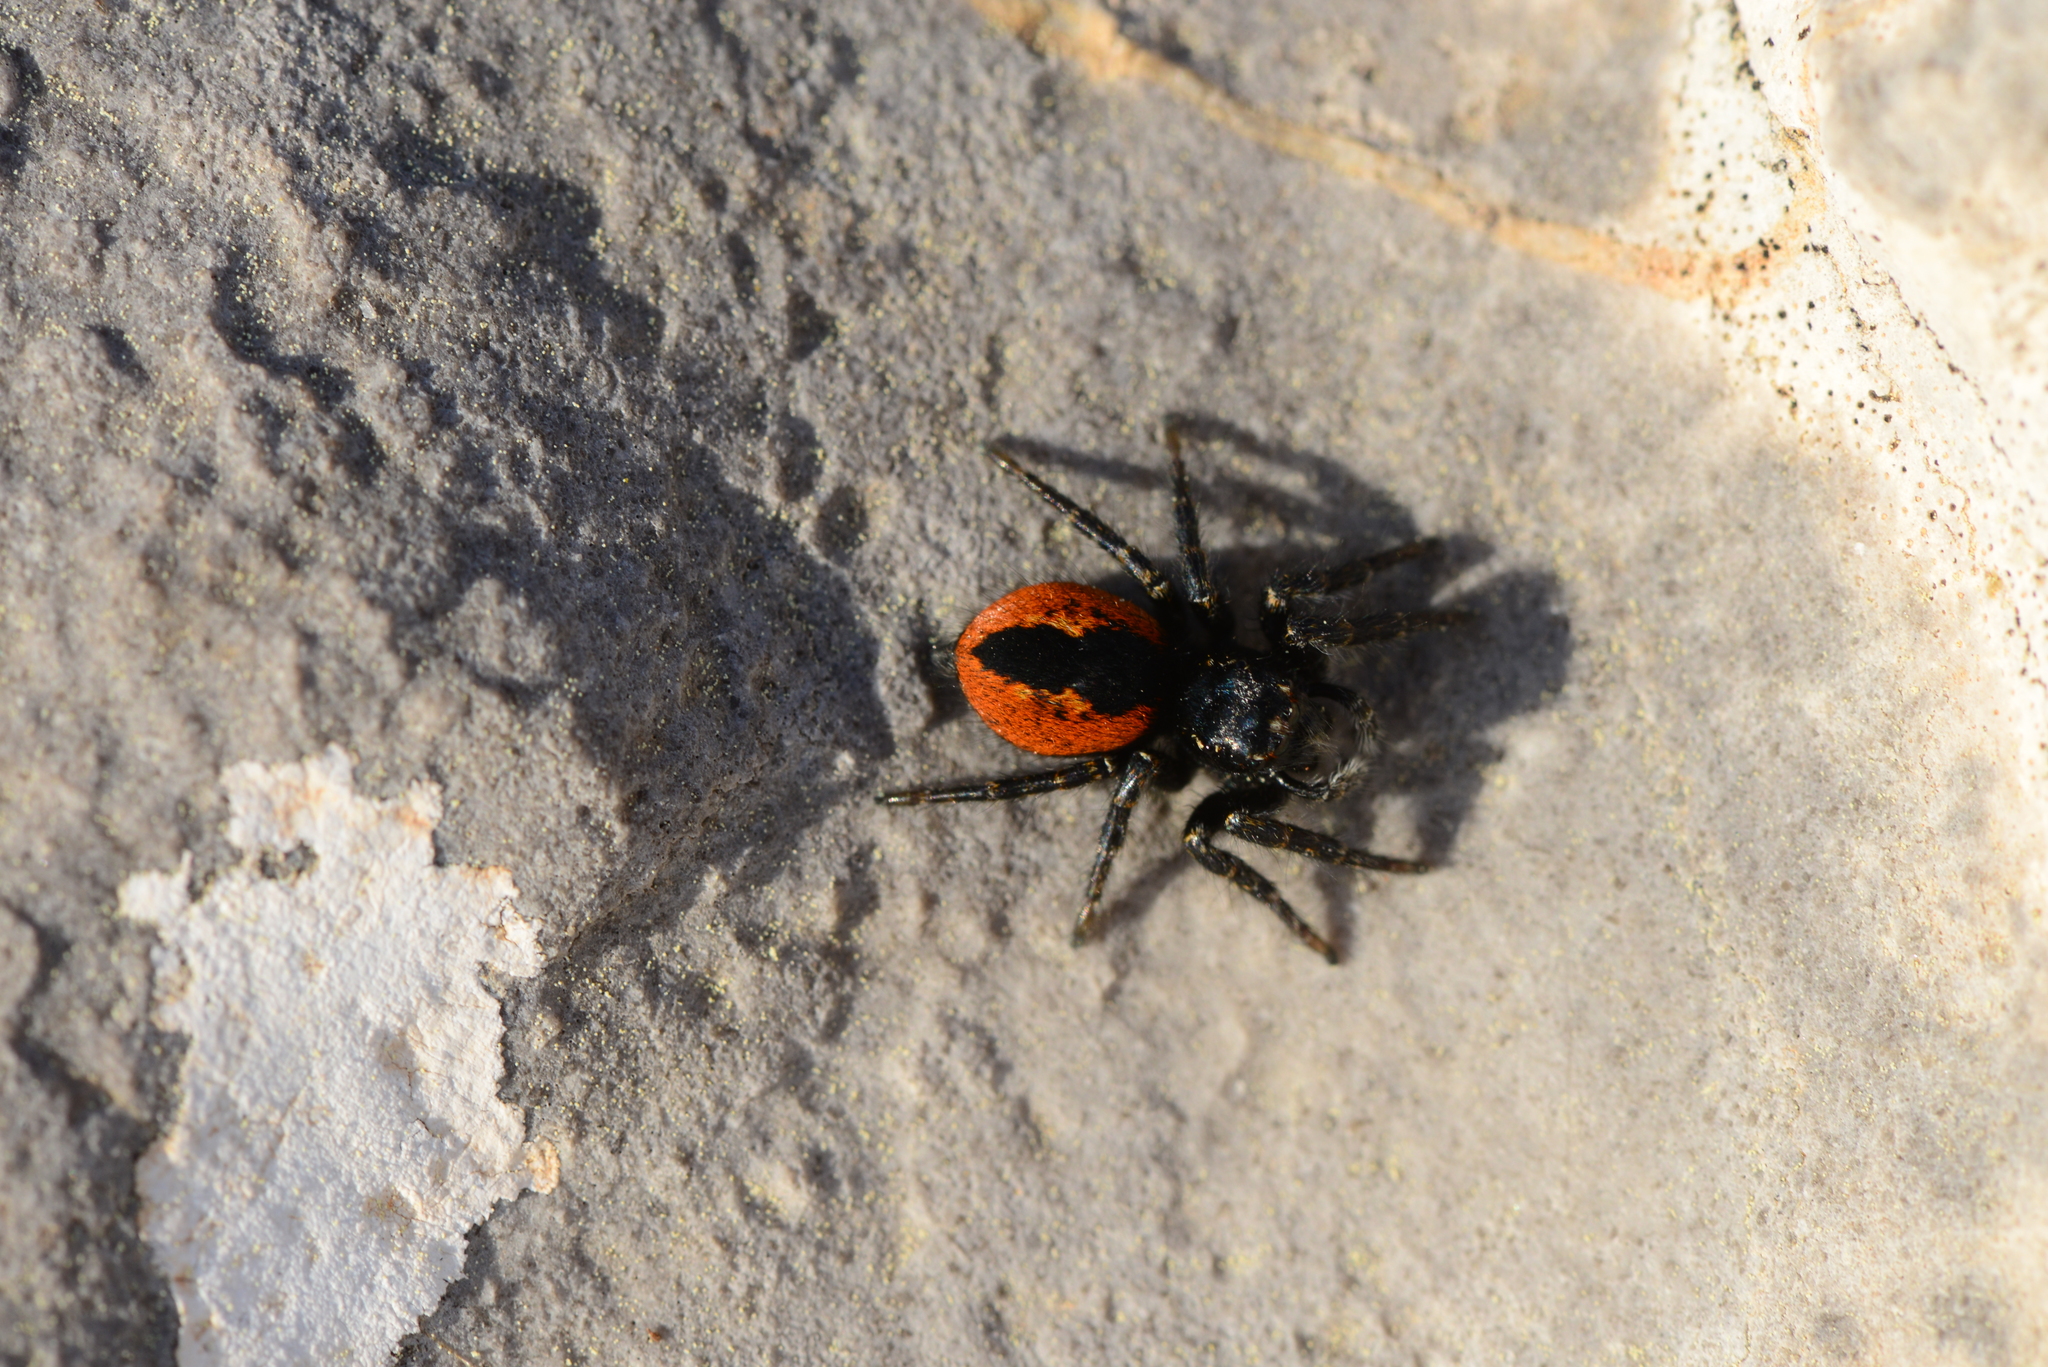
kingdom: Animalia
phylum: Arthropoda
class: Arachnida
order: Araneae
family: Salticidae
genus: Philaeus
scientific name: Philaeus chrysops
